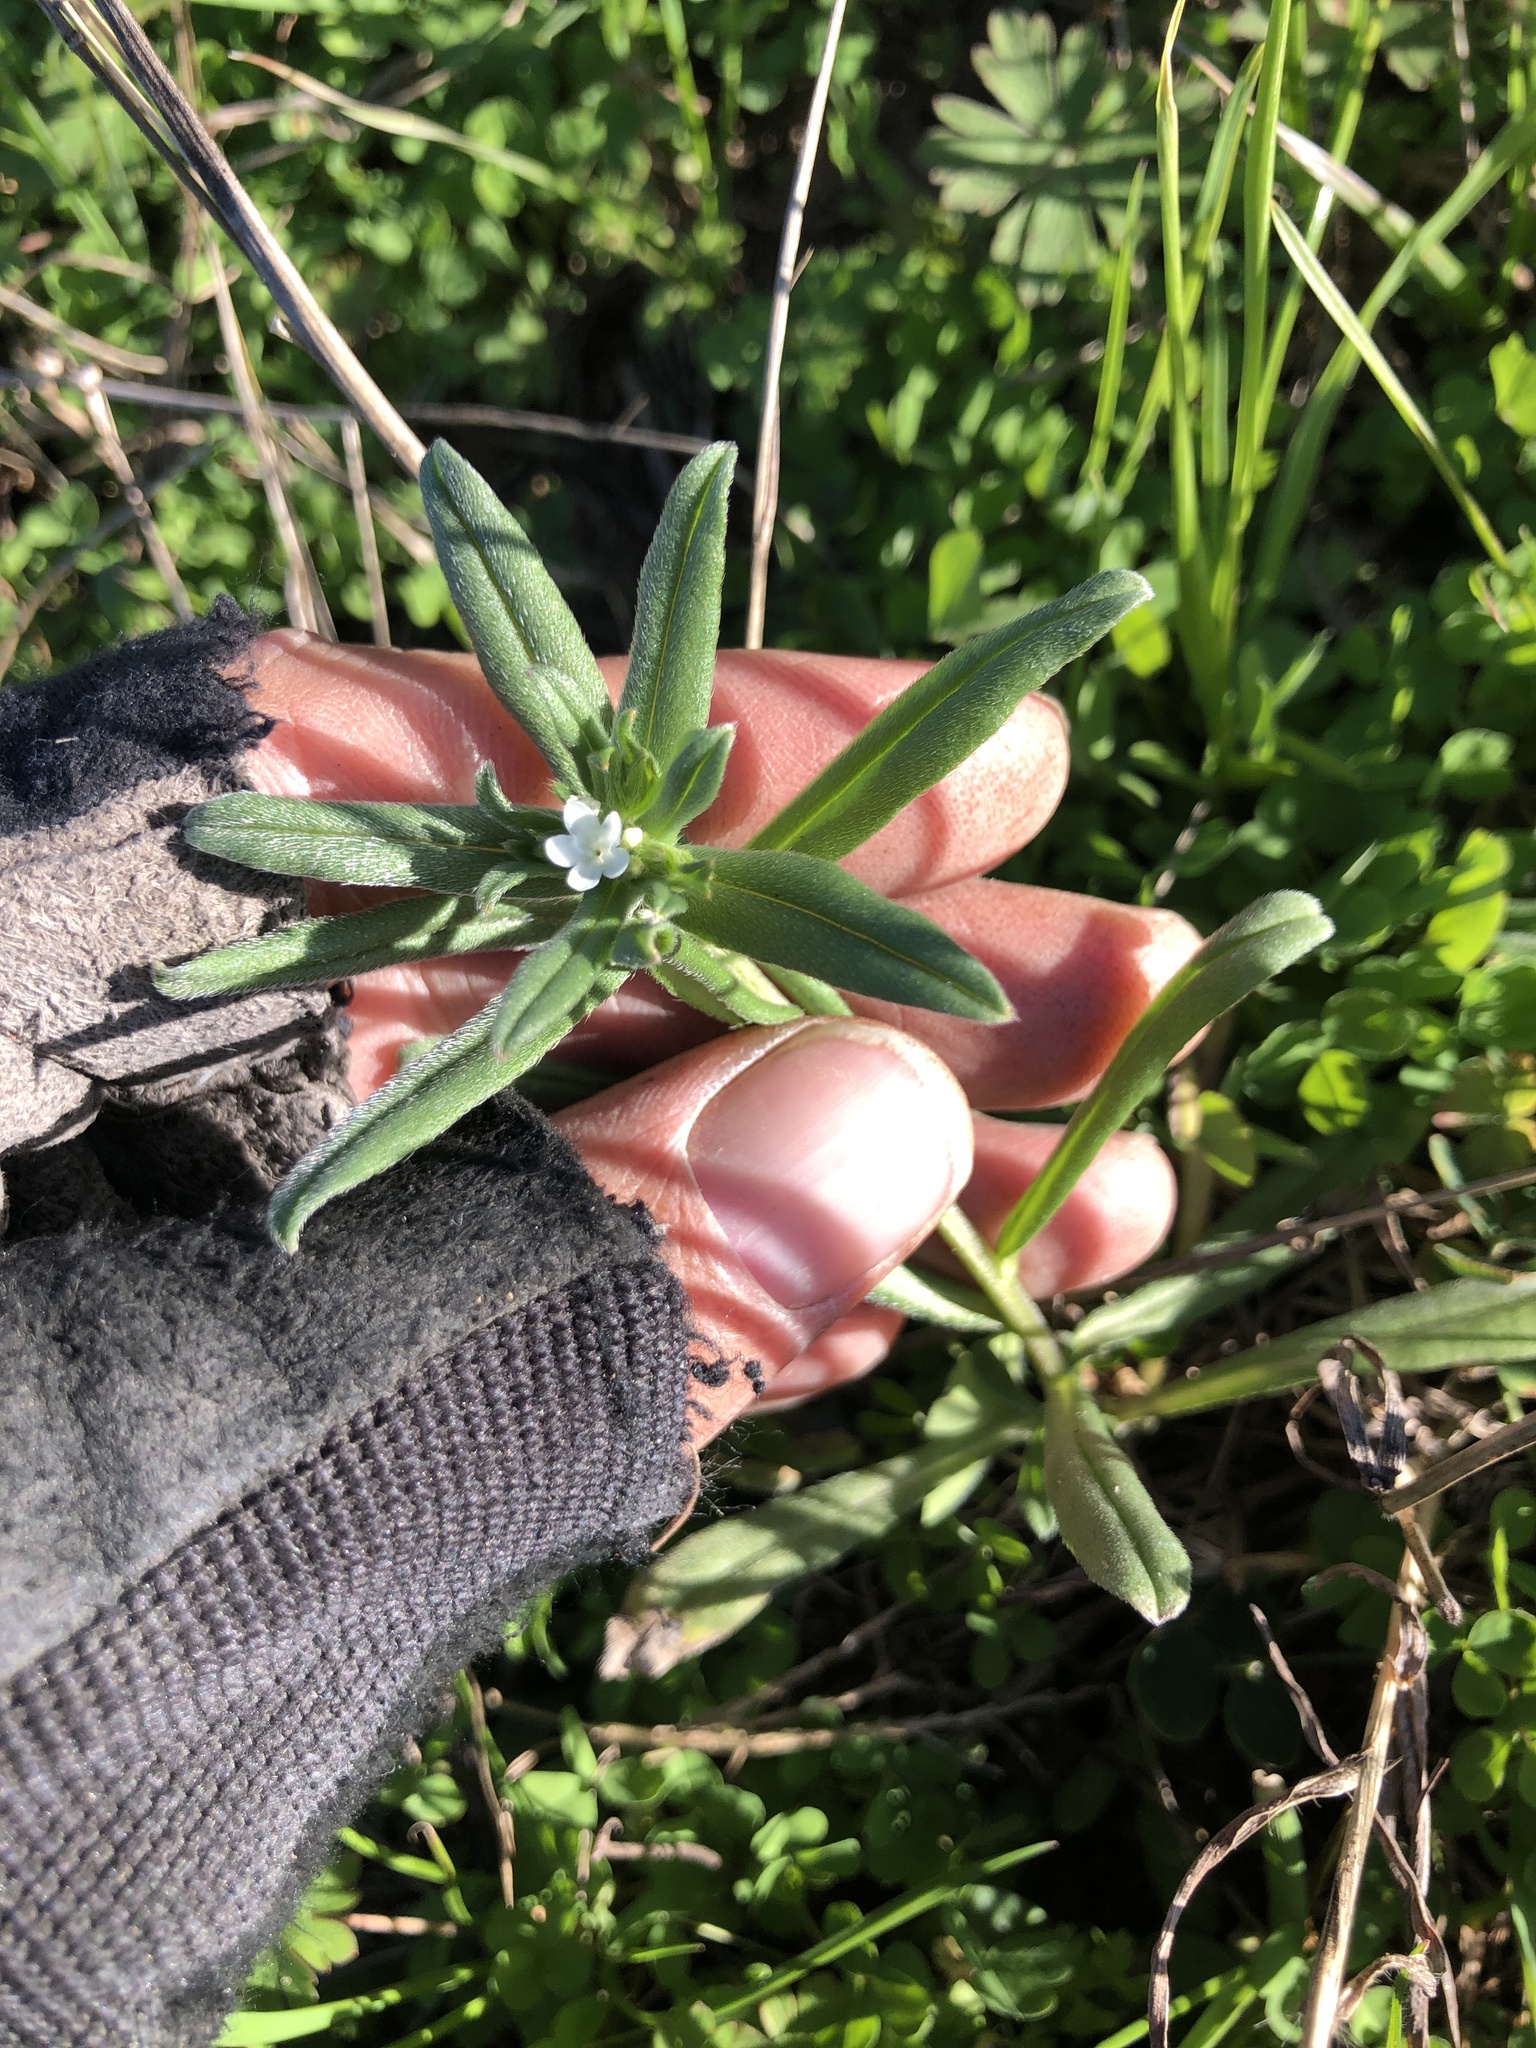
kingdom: Plantae
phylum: Tracheophyta
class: Magnoliopsida
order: Boraginales
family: Boraginaceae
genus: Buglossoides
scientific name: Buglossoides arvensis
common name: Corn gromwell
